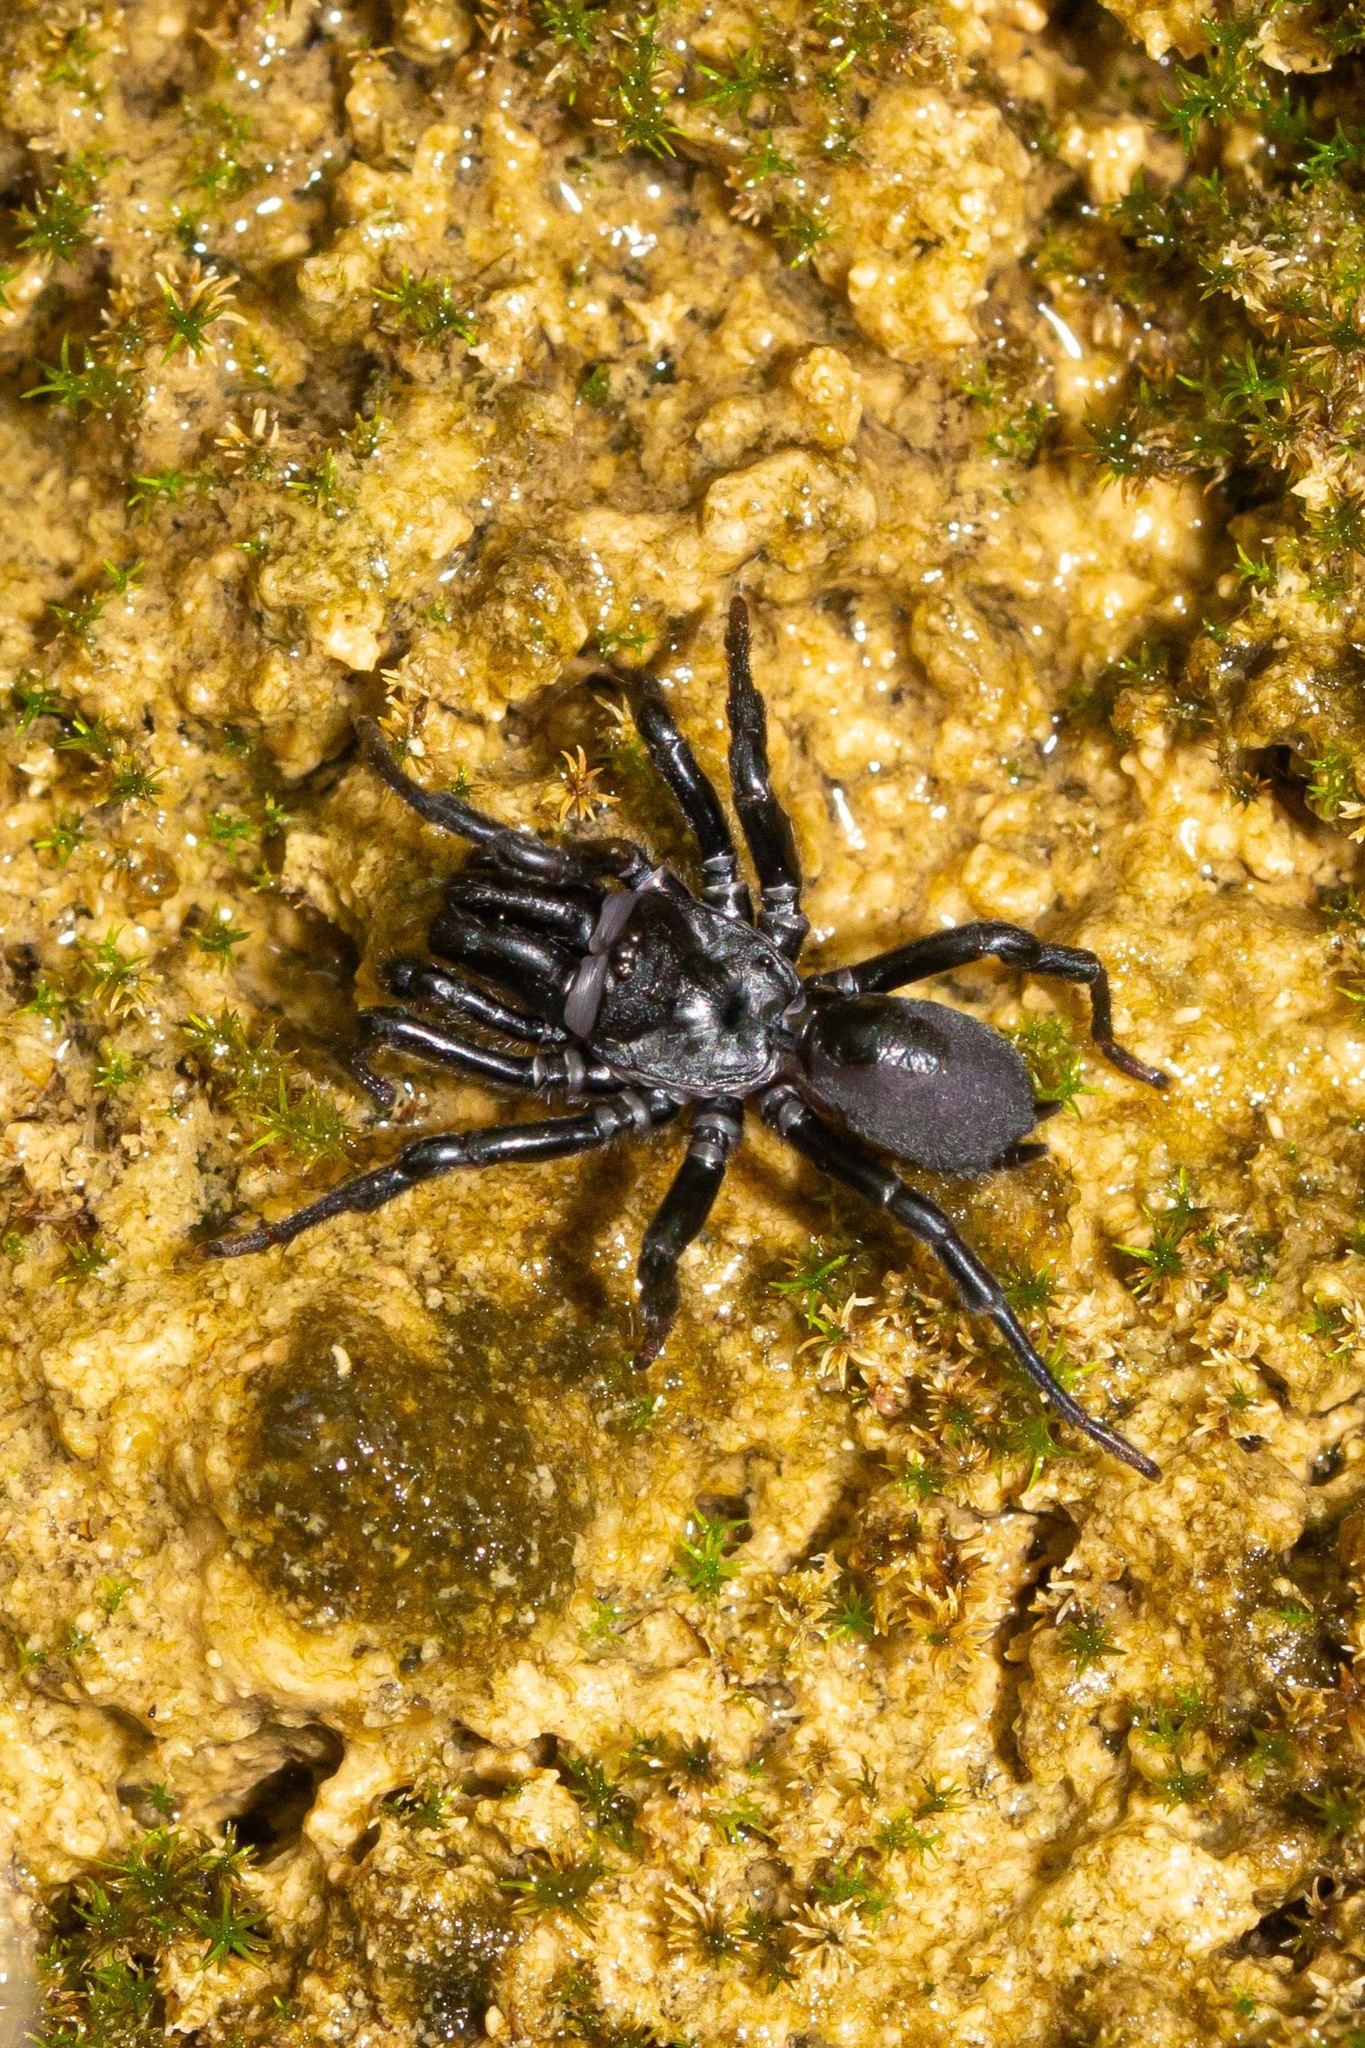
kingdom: Animalia
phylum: Arthropoda
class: Arachnida
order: Araneae
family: Atypidae
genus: Sphodros
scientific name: Sphodros niger
